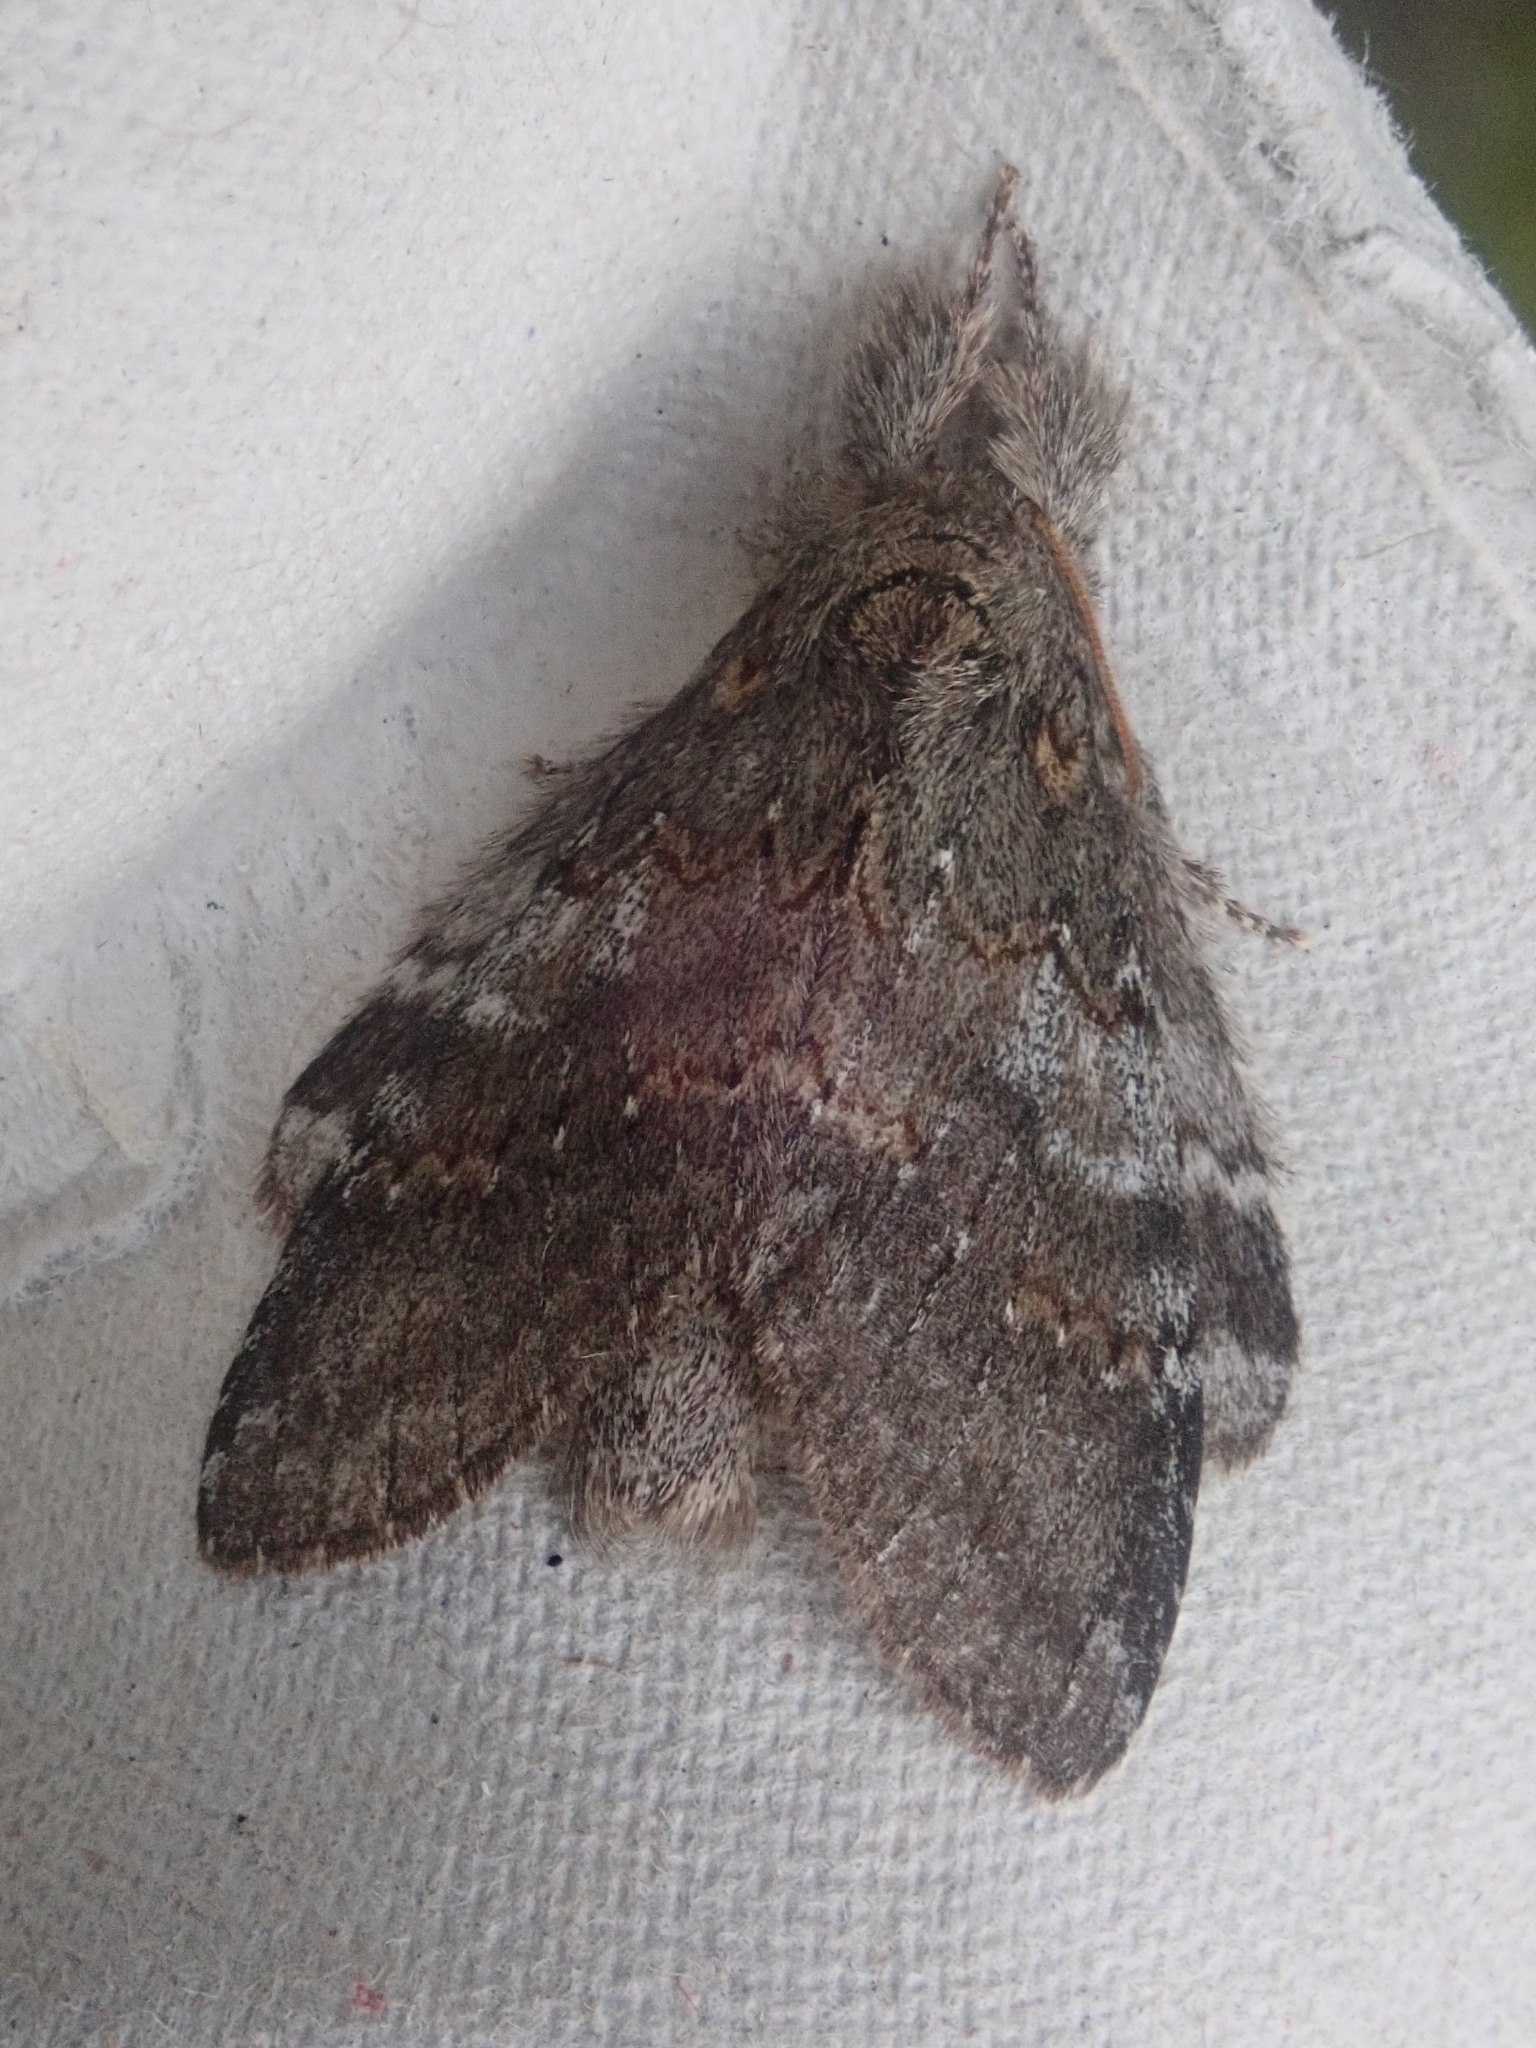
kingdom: Animalia
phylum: Arthropoda
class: Insecta
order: Lepidoptera
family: Notodontidae
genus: Peridea
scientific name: Peridea angulosa
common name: Angulose prominent
